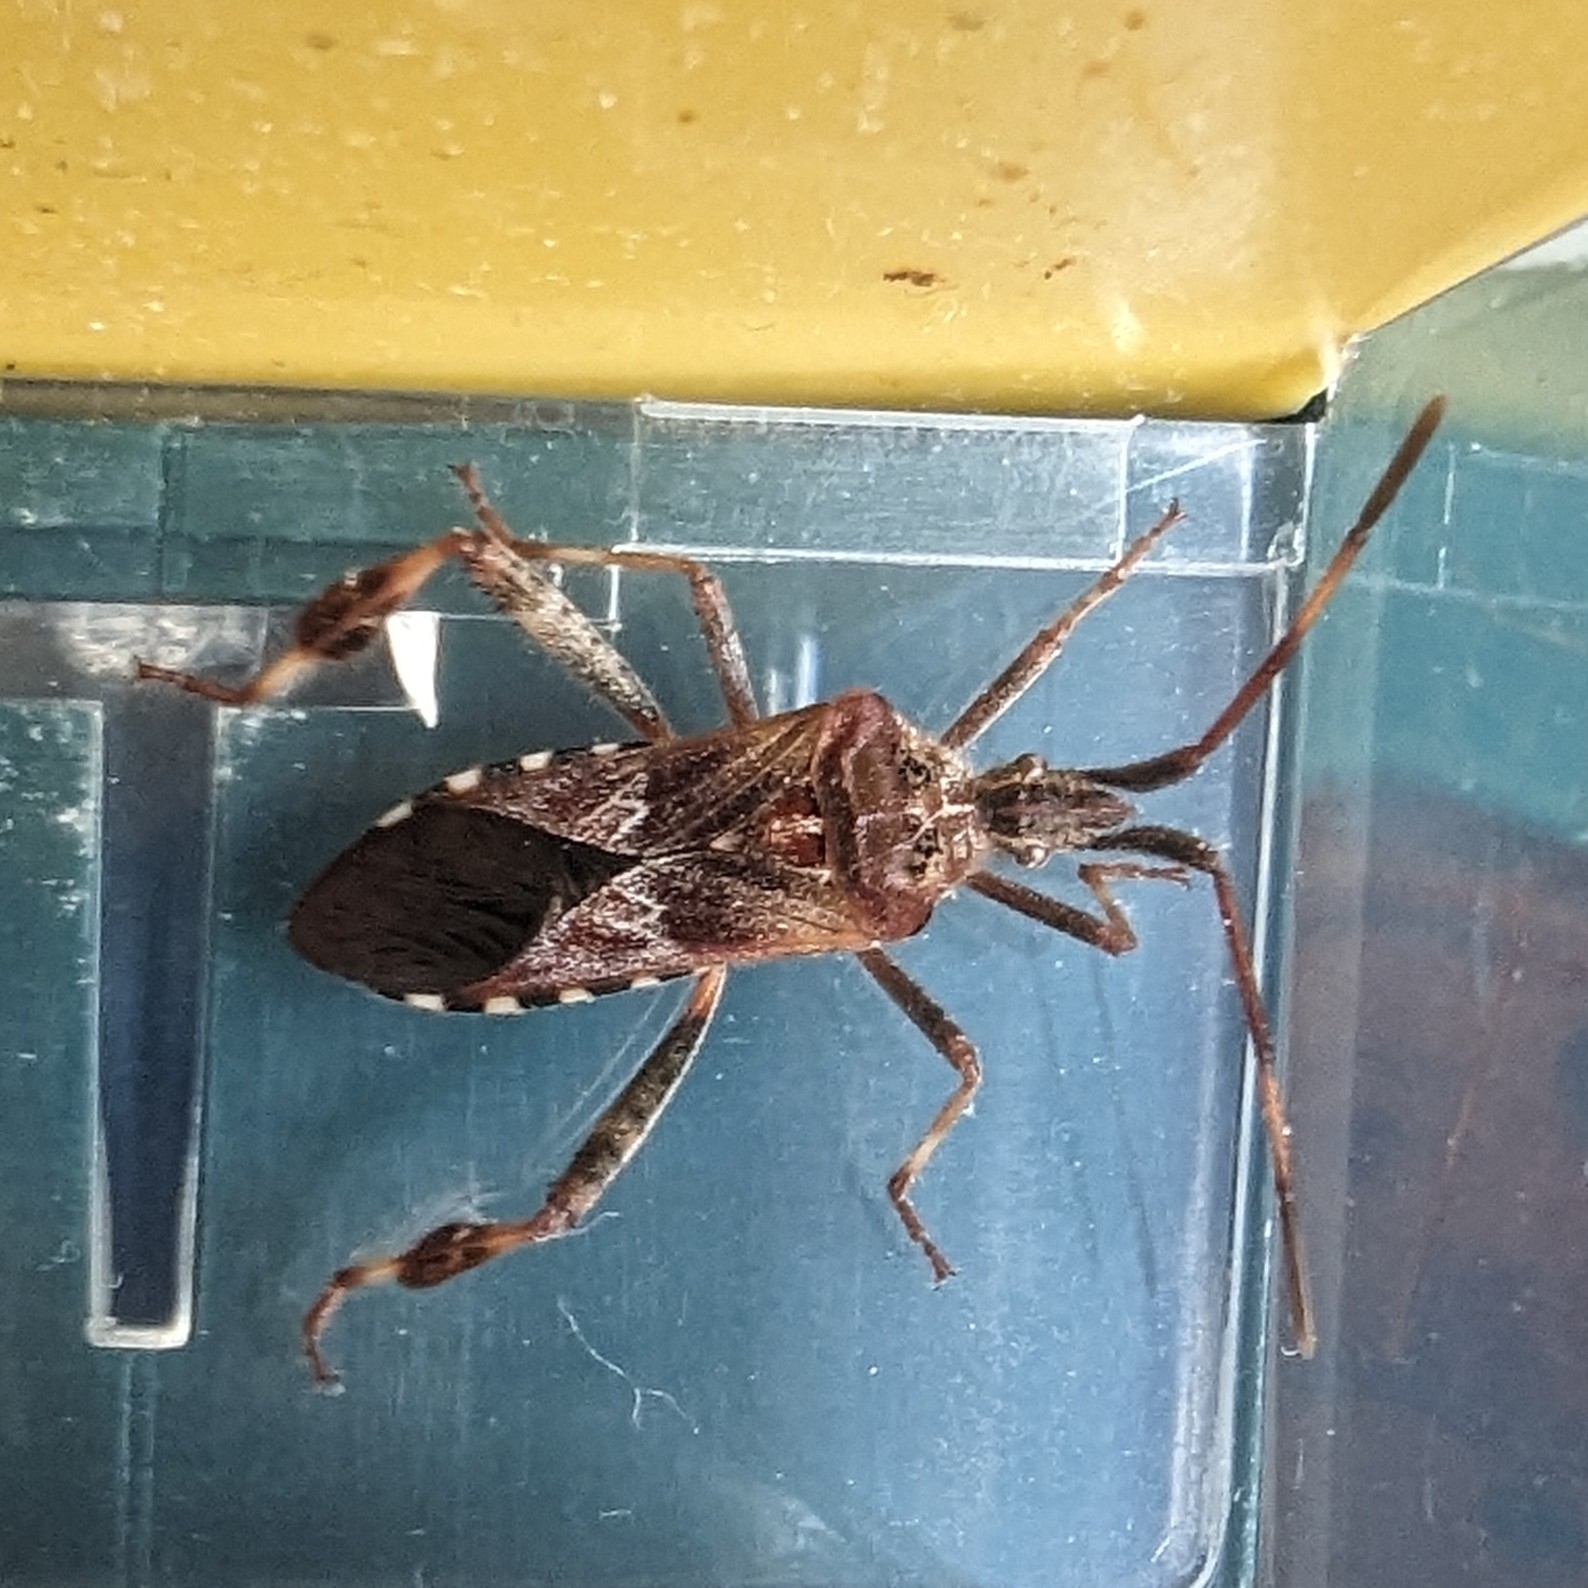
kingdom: Animalia
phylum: Arthropoda
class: Insecta
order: Hemiptera
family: Coreidae
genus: Leptoglossus
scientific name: Leptoglossus occidentalis
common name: Western conifer-seed bug
